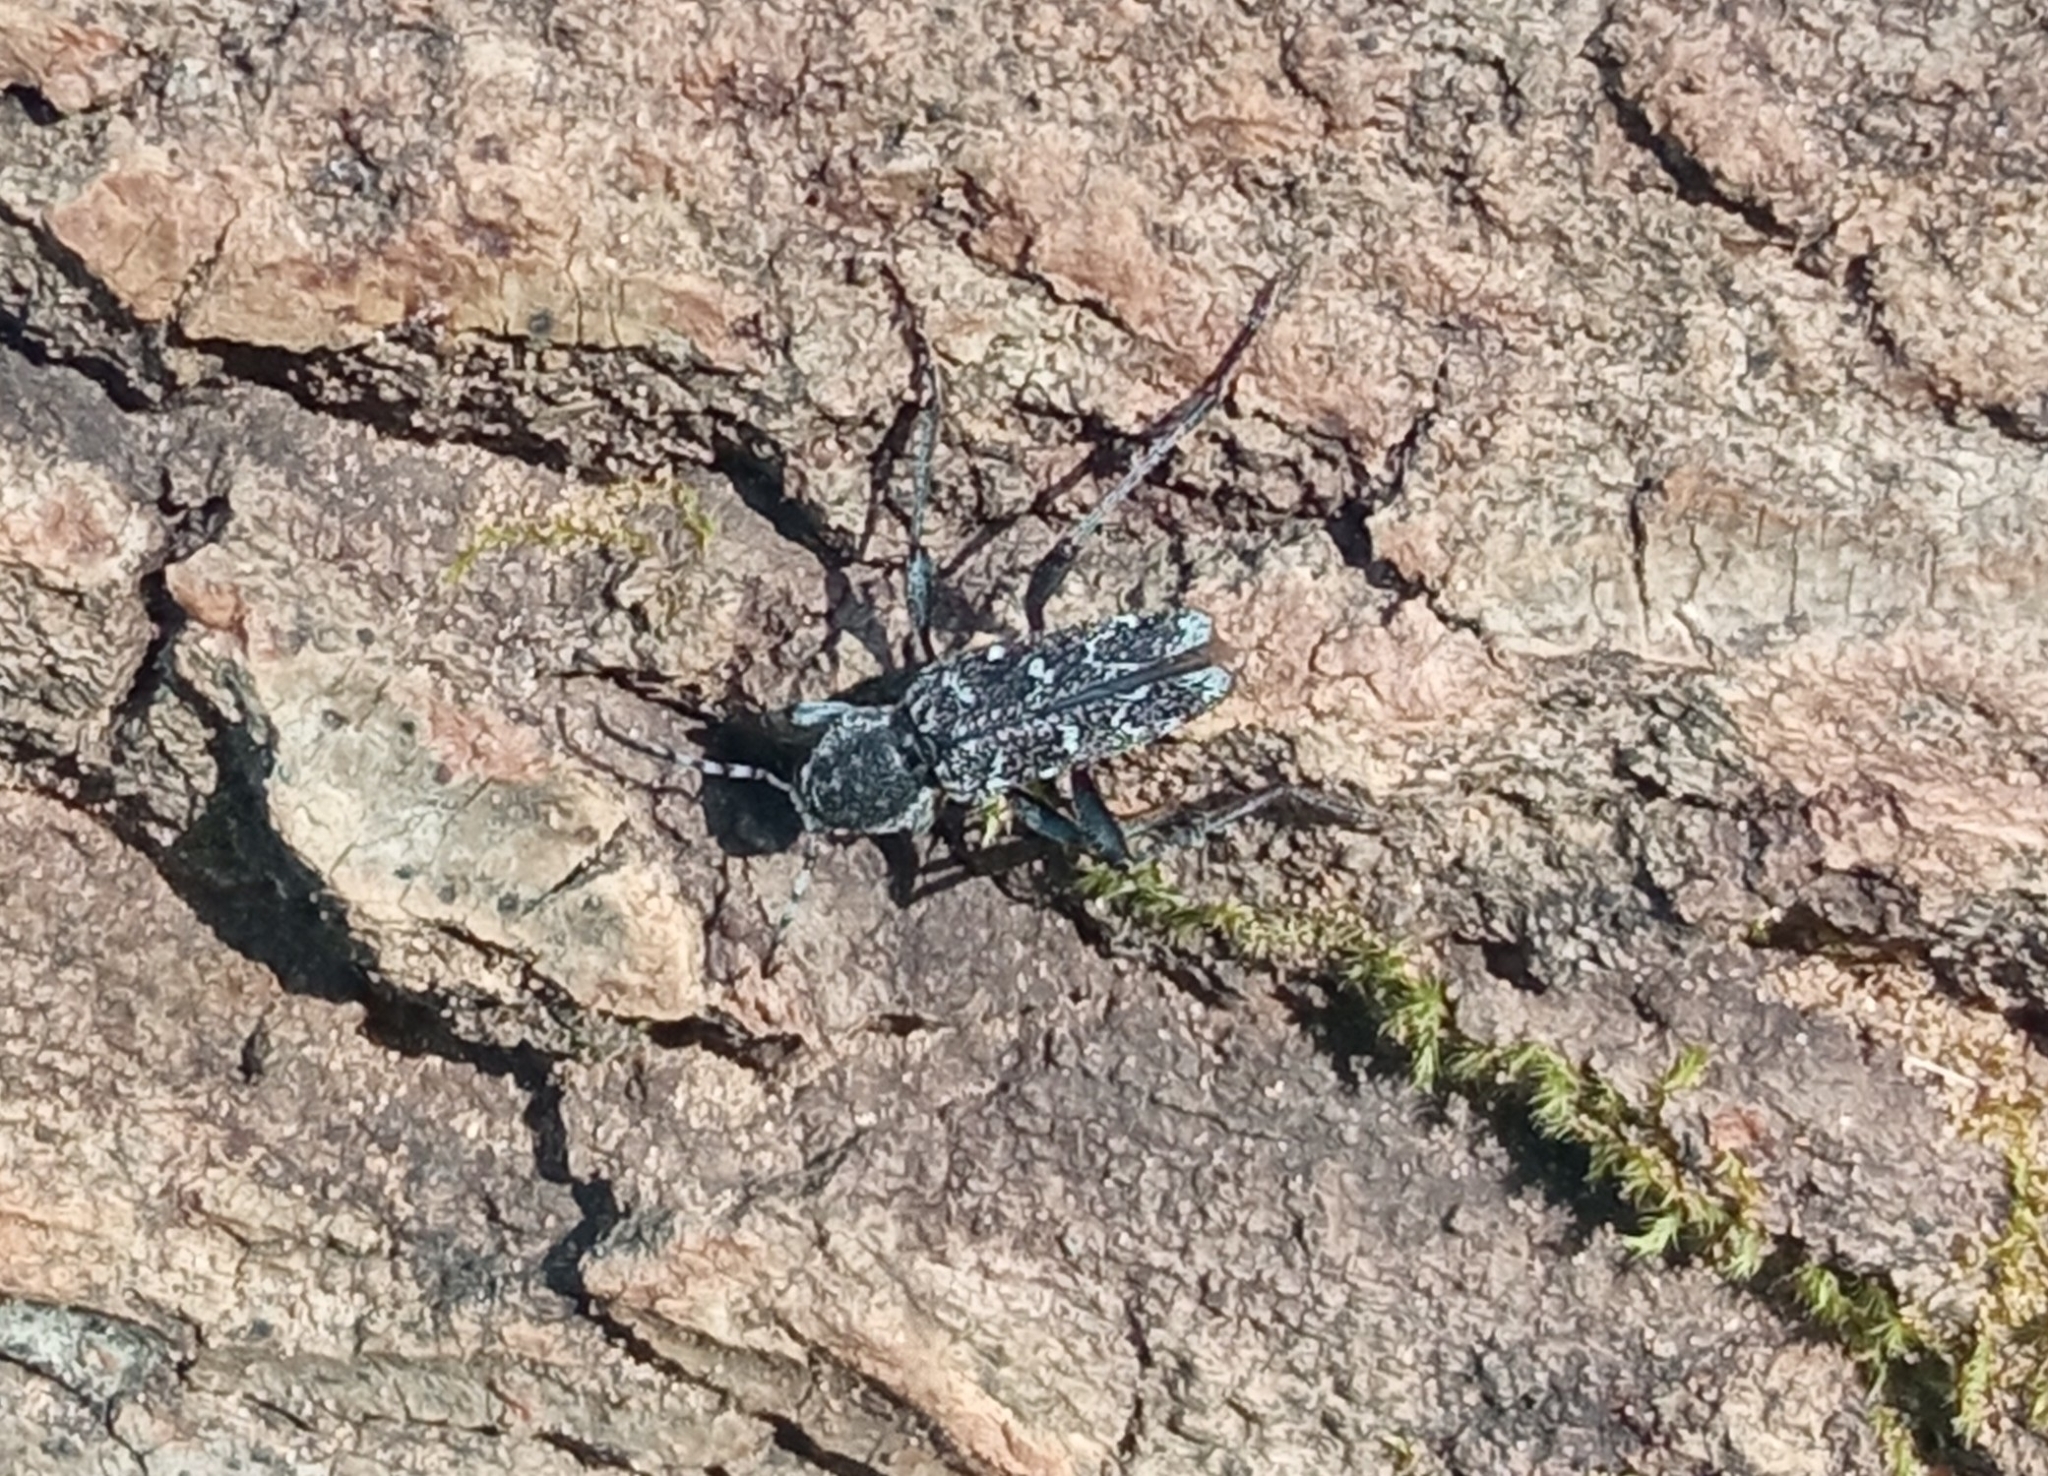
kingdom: Animalia
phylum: Arthropoda
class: Insecta
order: Coleoptera
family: Cerambycidae
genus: Xylotrechus
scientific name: Xylotrechus rusticus
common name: Grey tiger long-horned beetle
